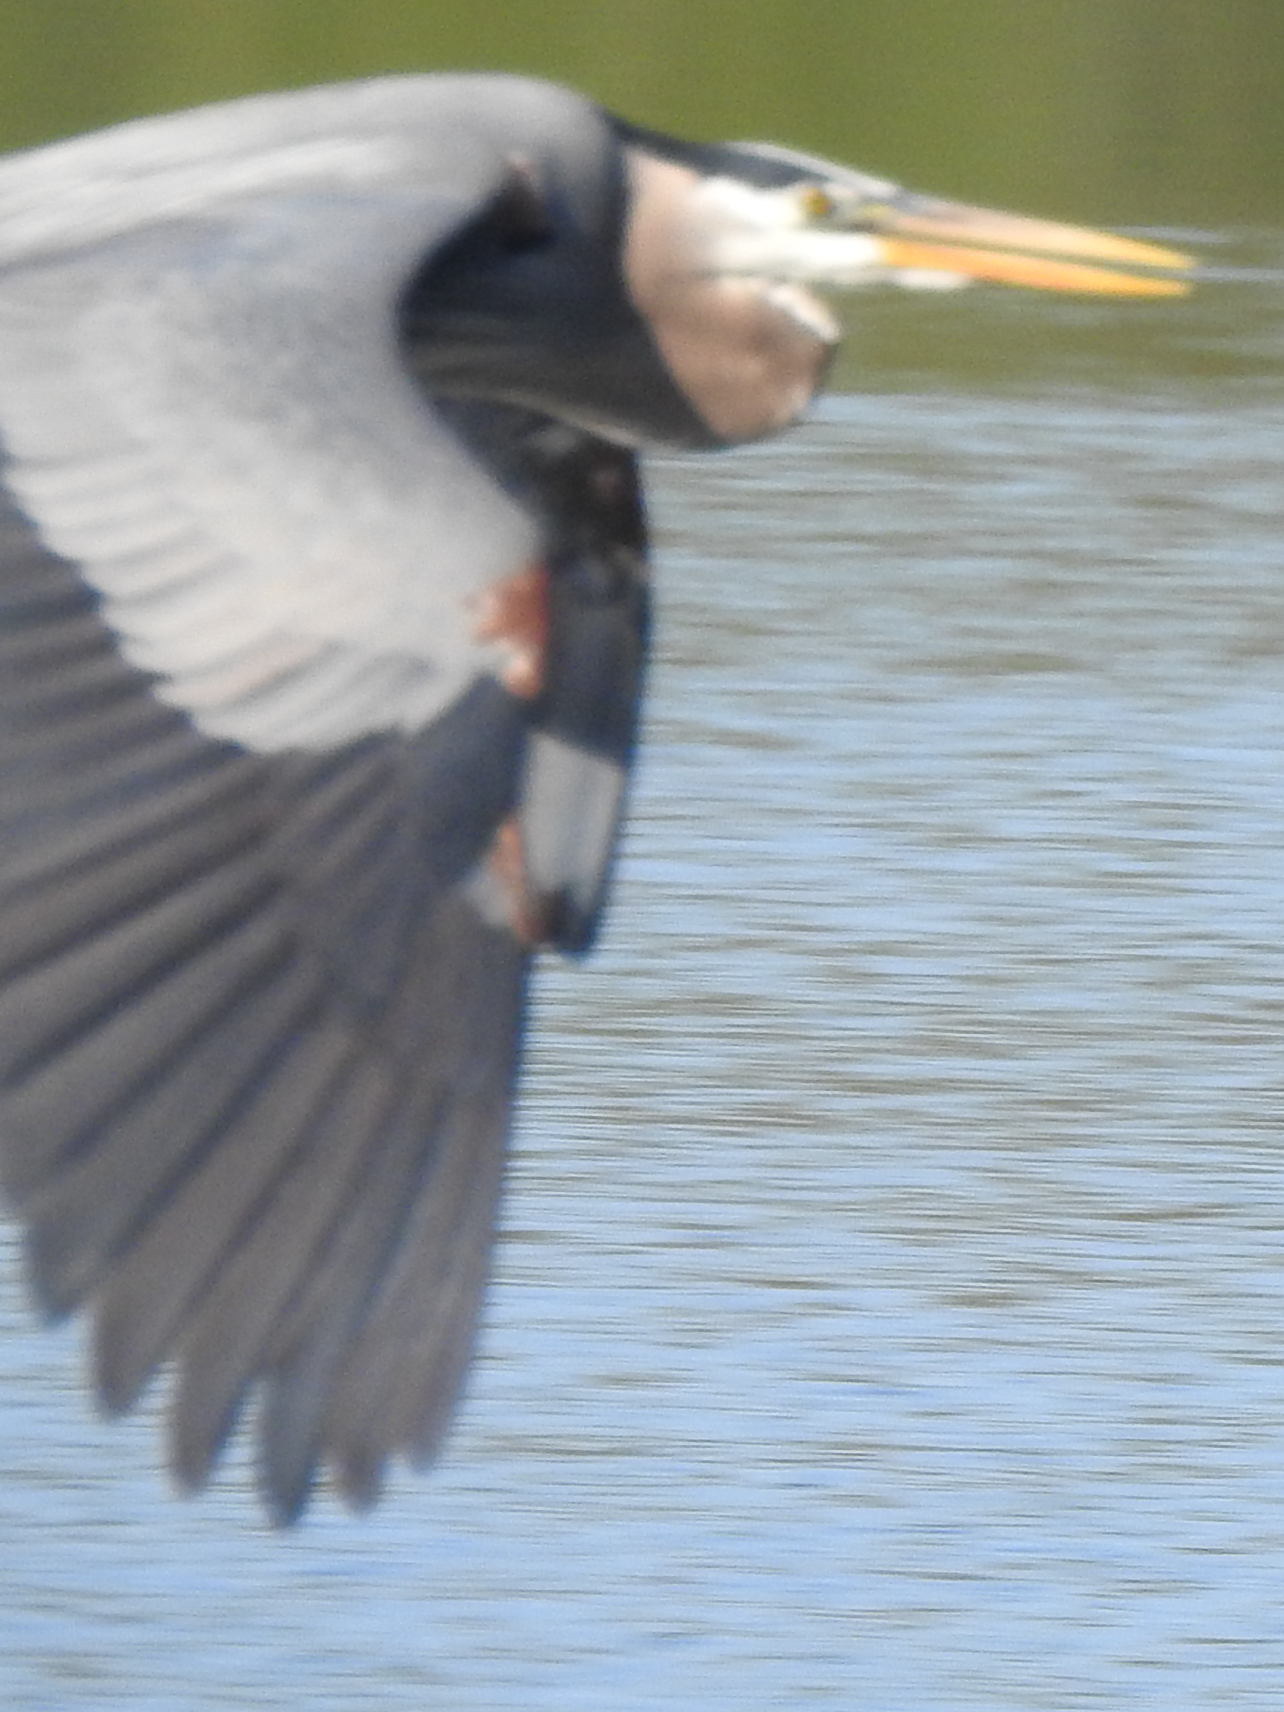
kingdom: Animalia
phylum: Chordata
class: Aves
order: Pelecaniformes
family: Ardeidae
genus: Ardea
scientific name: Ardea herodias
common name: Great blue heron
